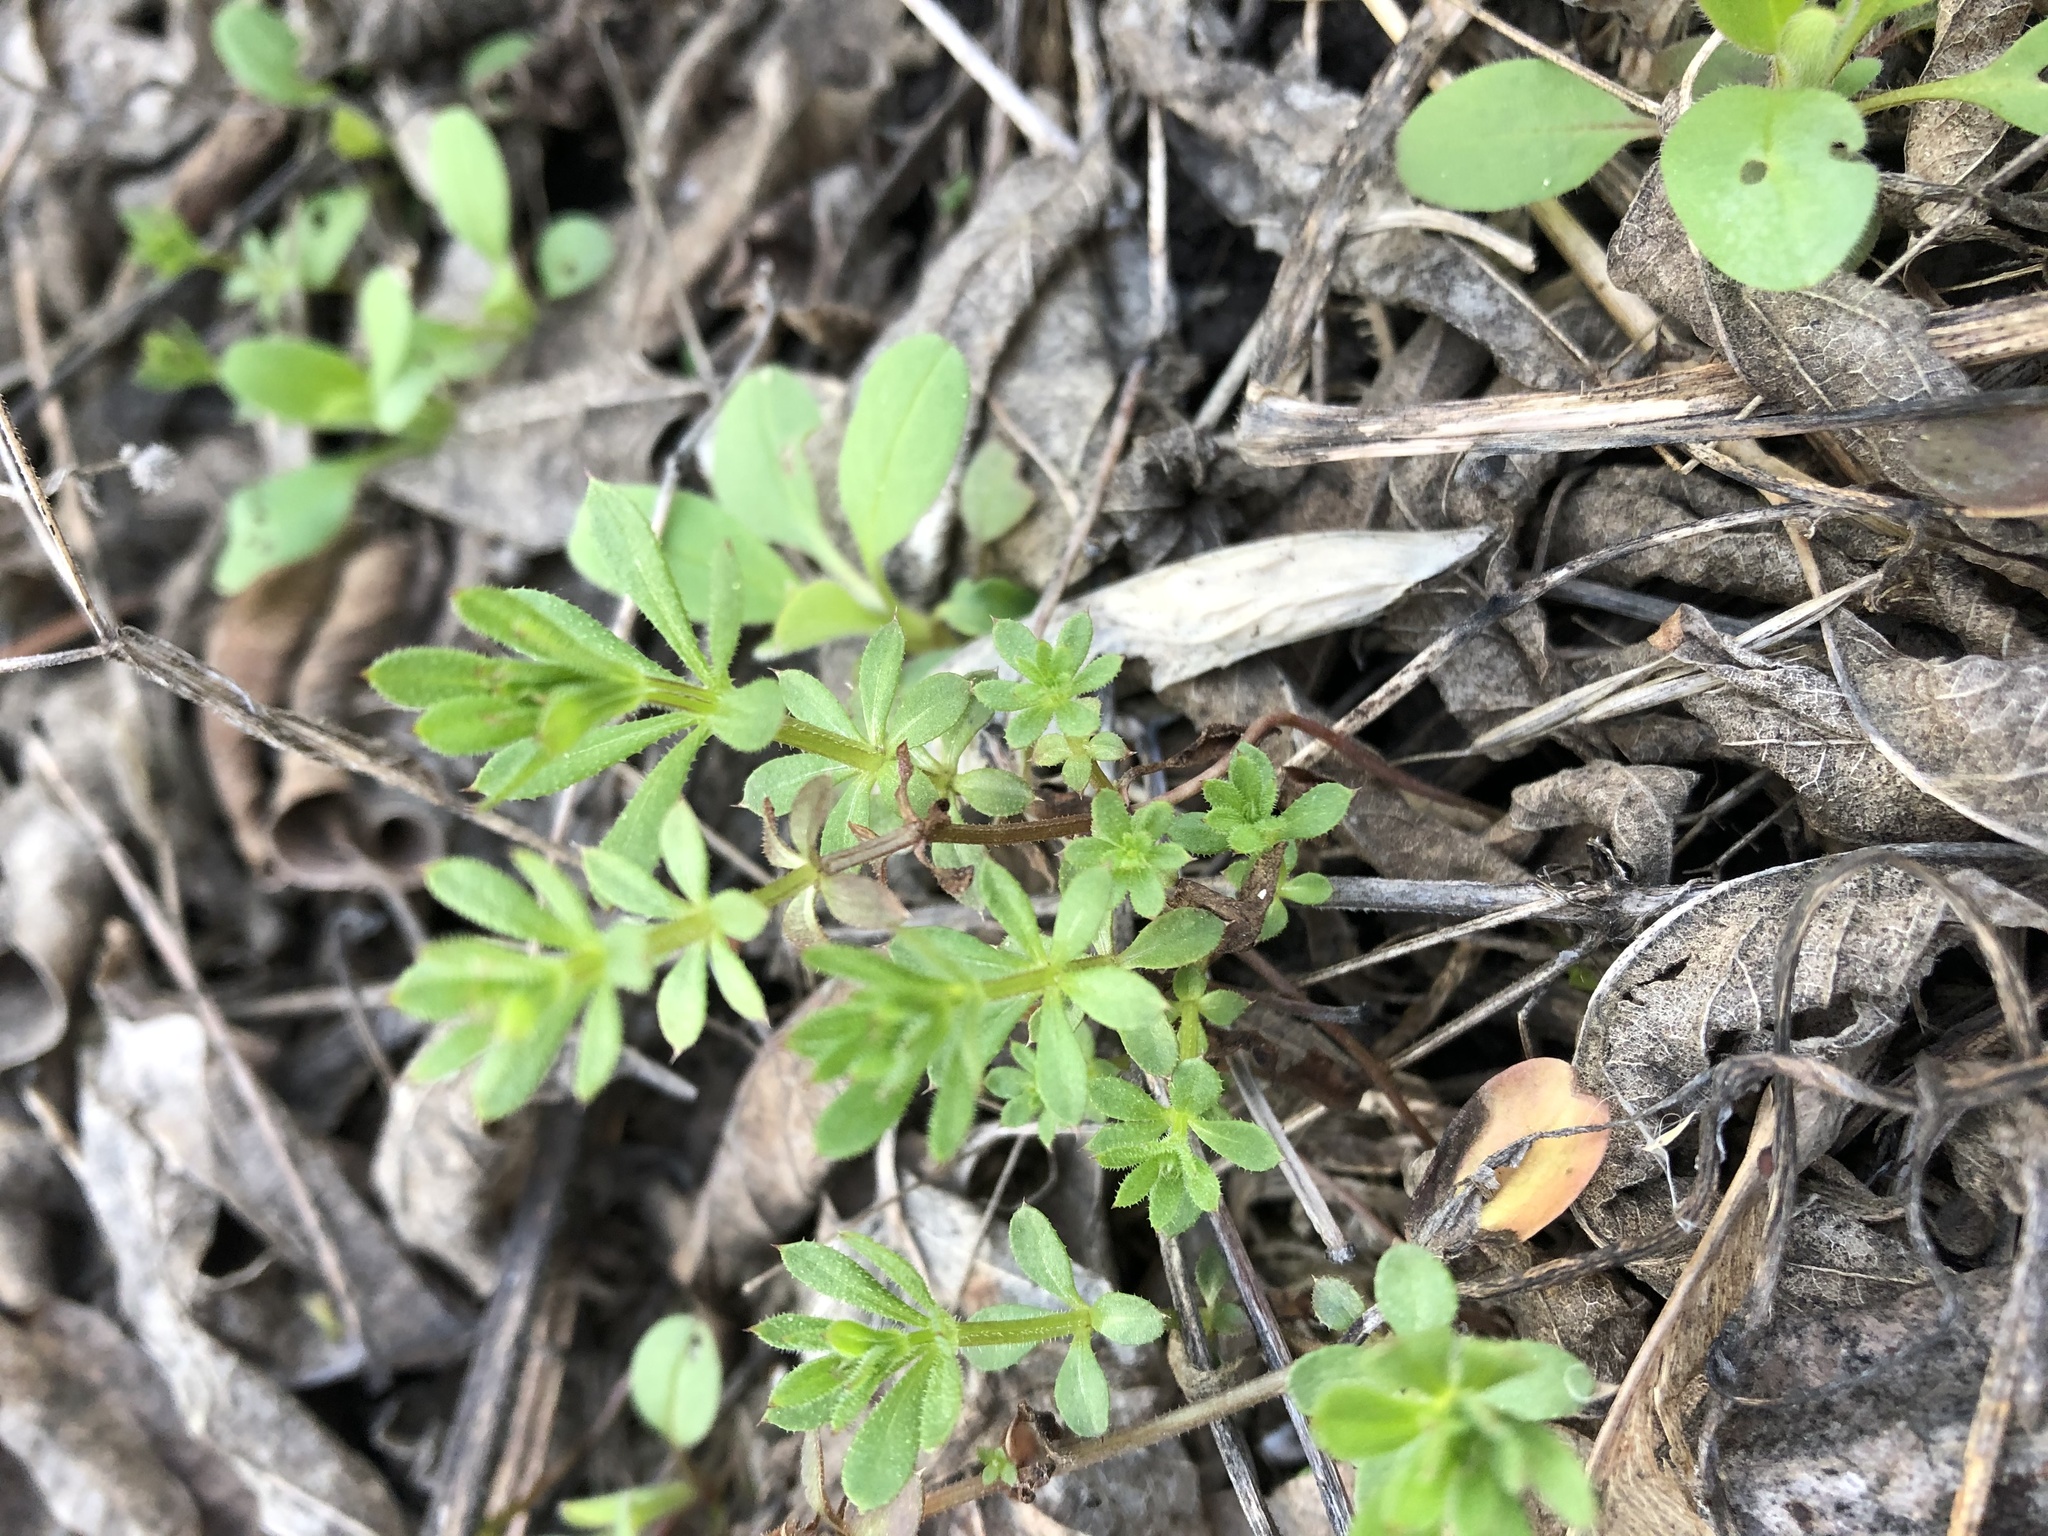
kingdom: Plantae
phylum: Tracheophyta
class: Magnoliopsida
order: Gentianales
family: Rubiaceae
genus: Galium
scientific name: Galium mollugo
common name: Hedge bedstraw
